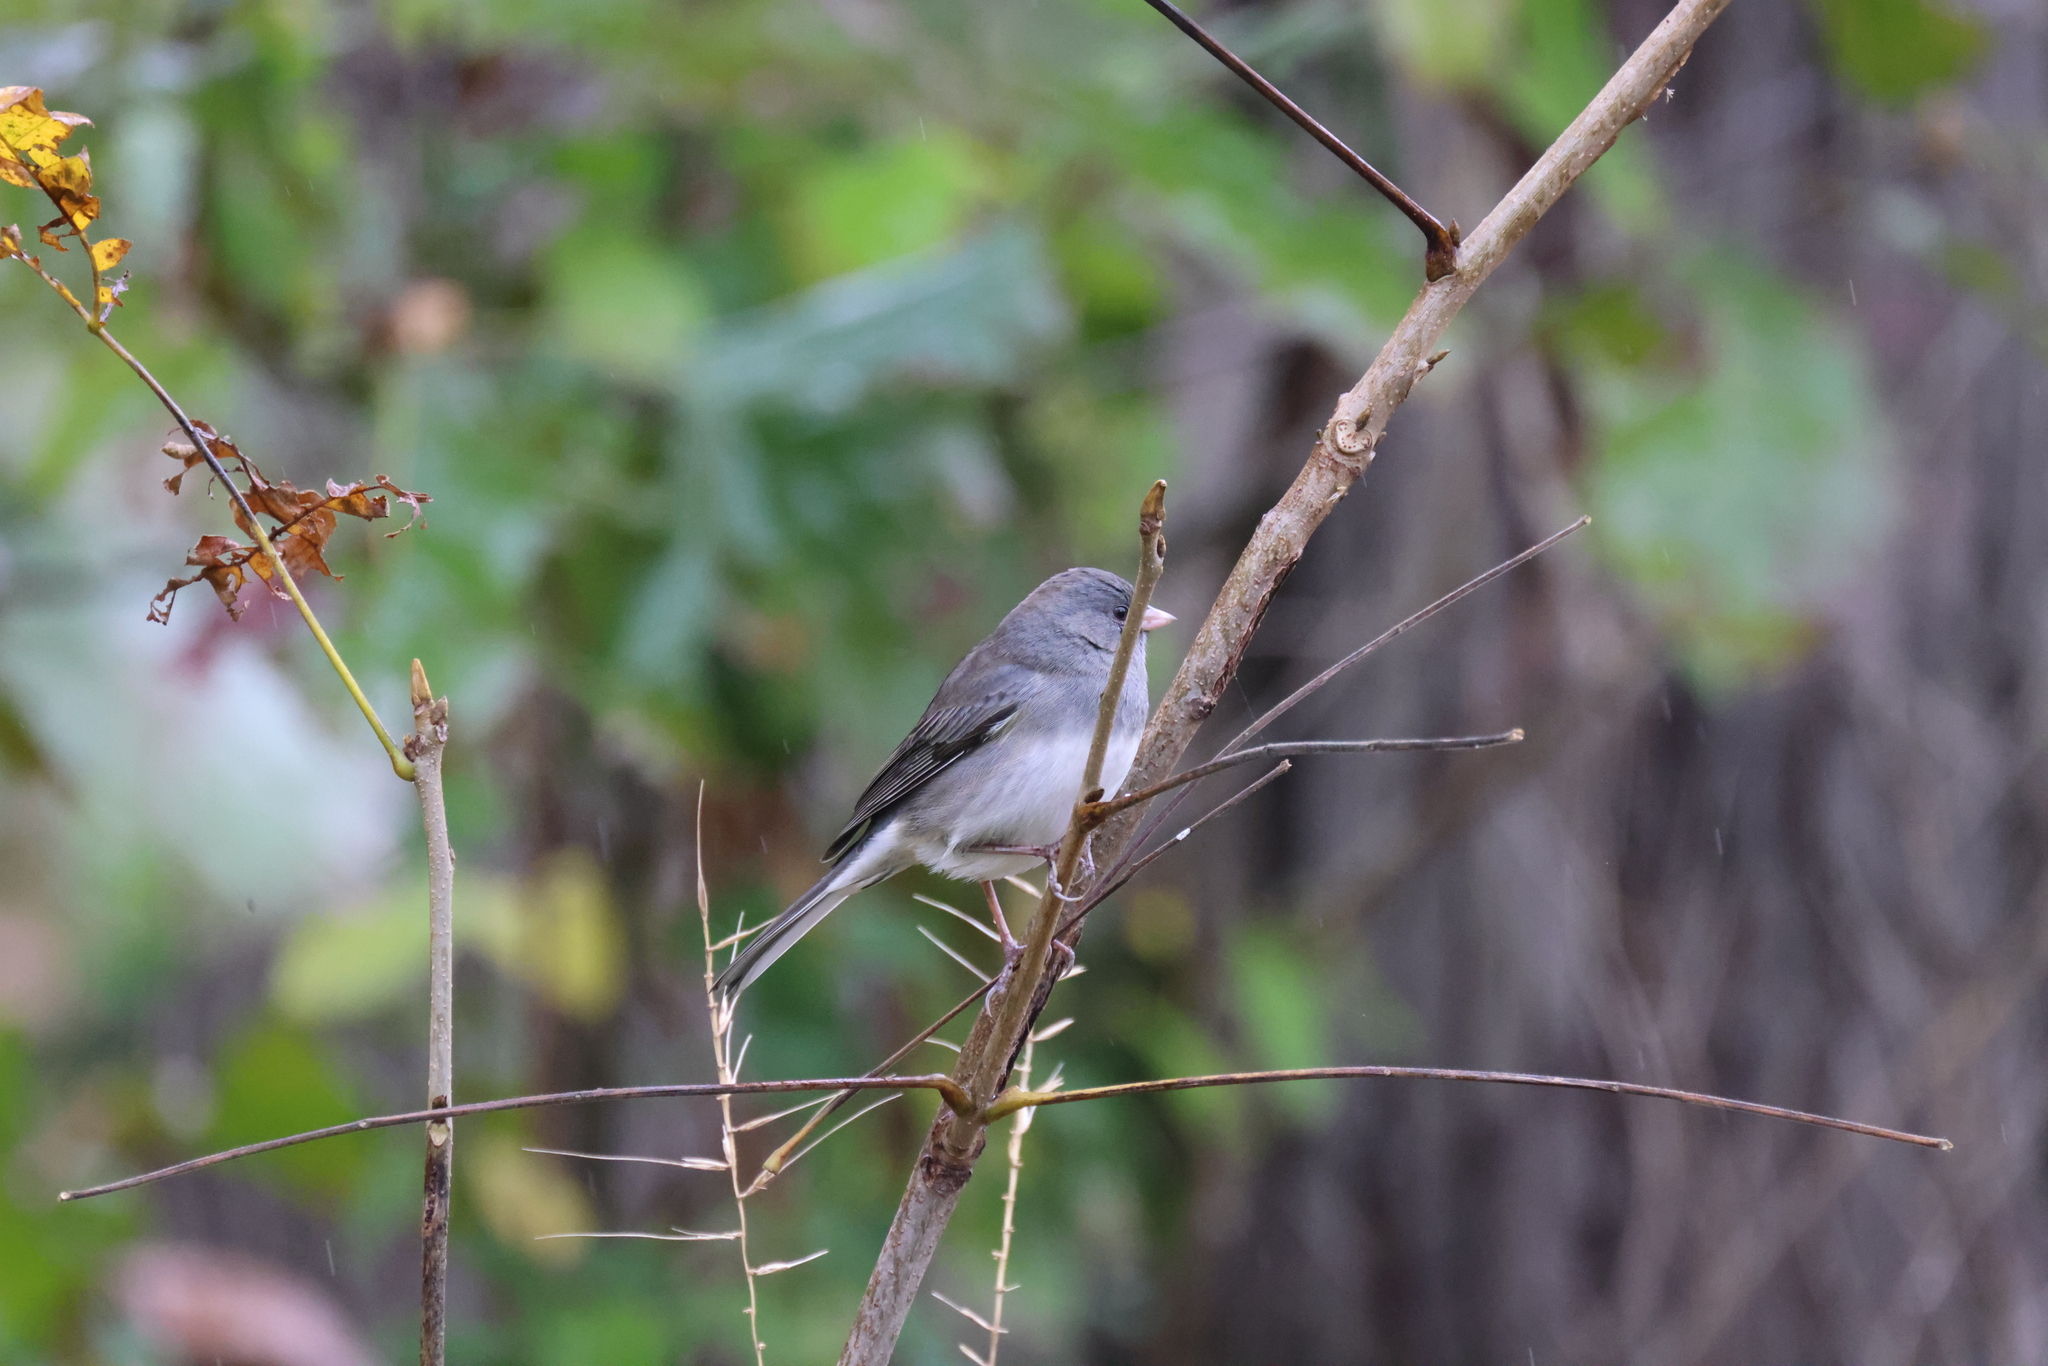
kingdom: Animalia
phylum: Chordata
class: Aves
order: Passeriformes
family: Passerellidae
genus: Junco
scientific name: Junco hyemalis
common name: Dark-eyed junco
